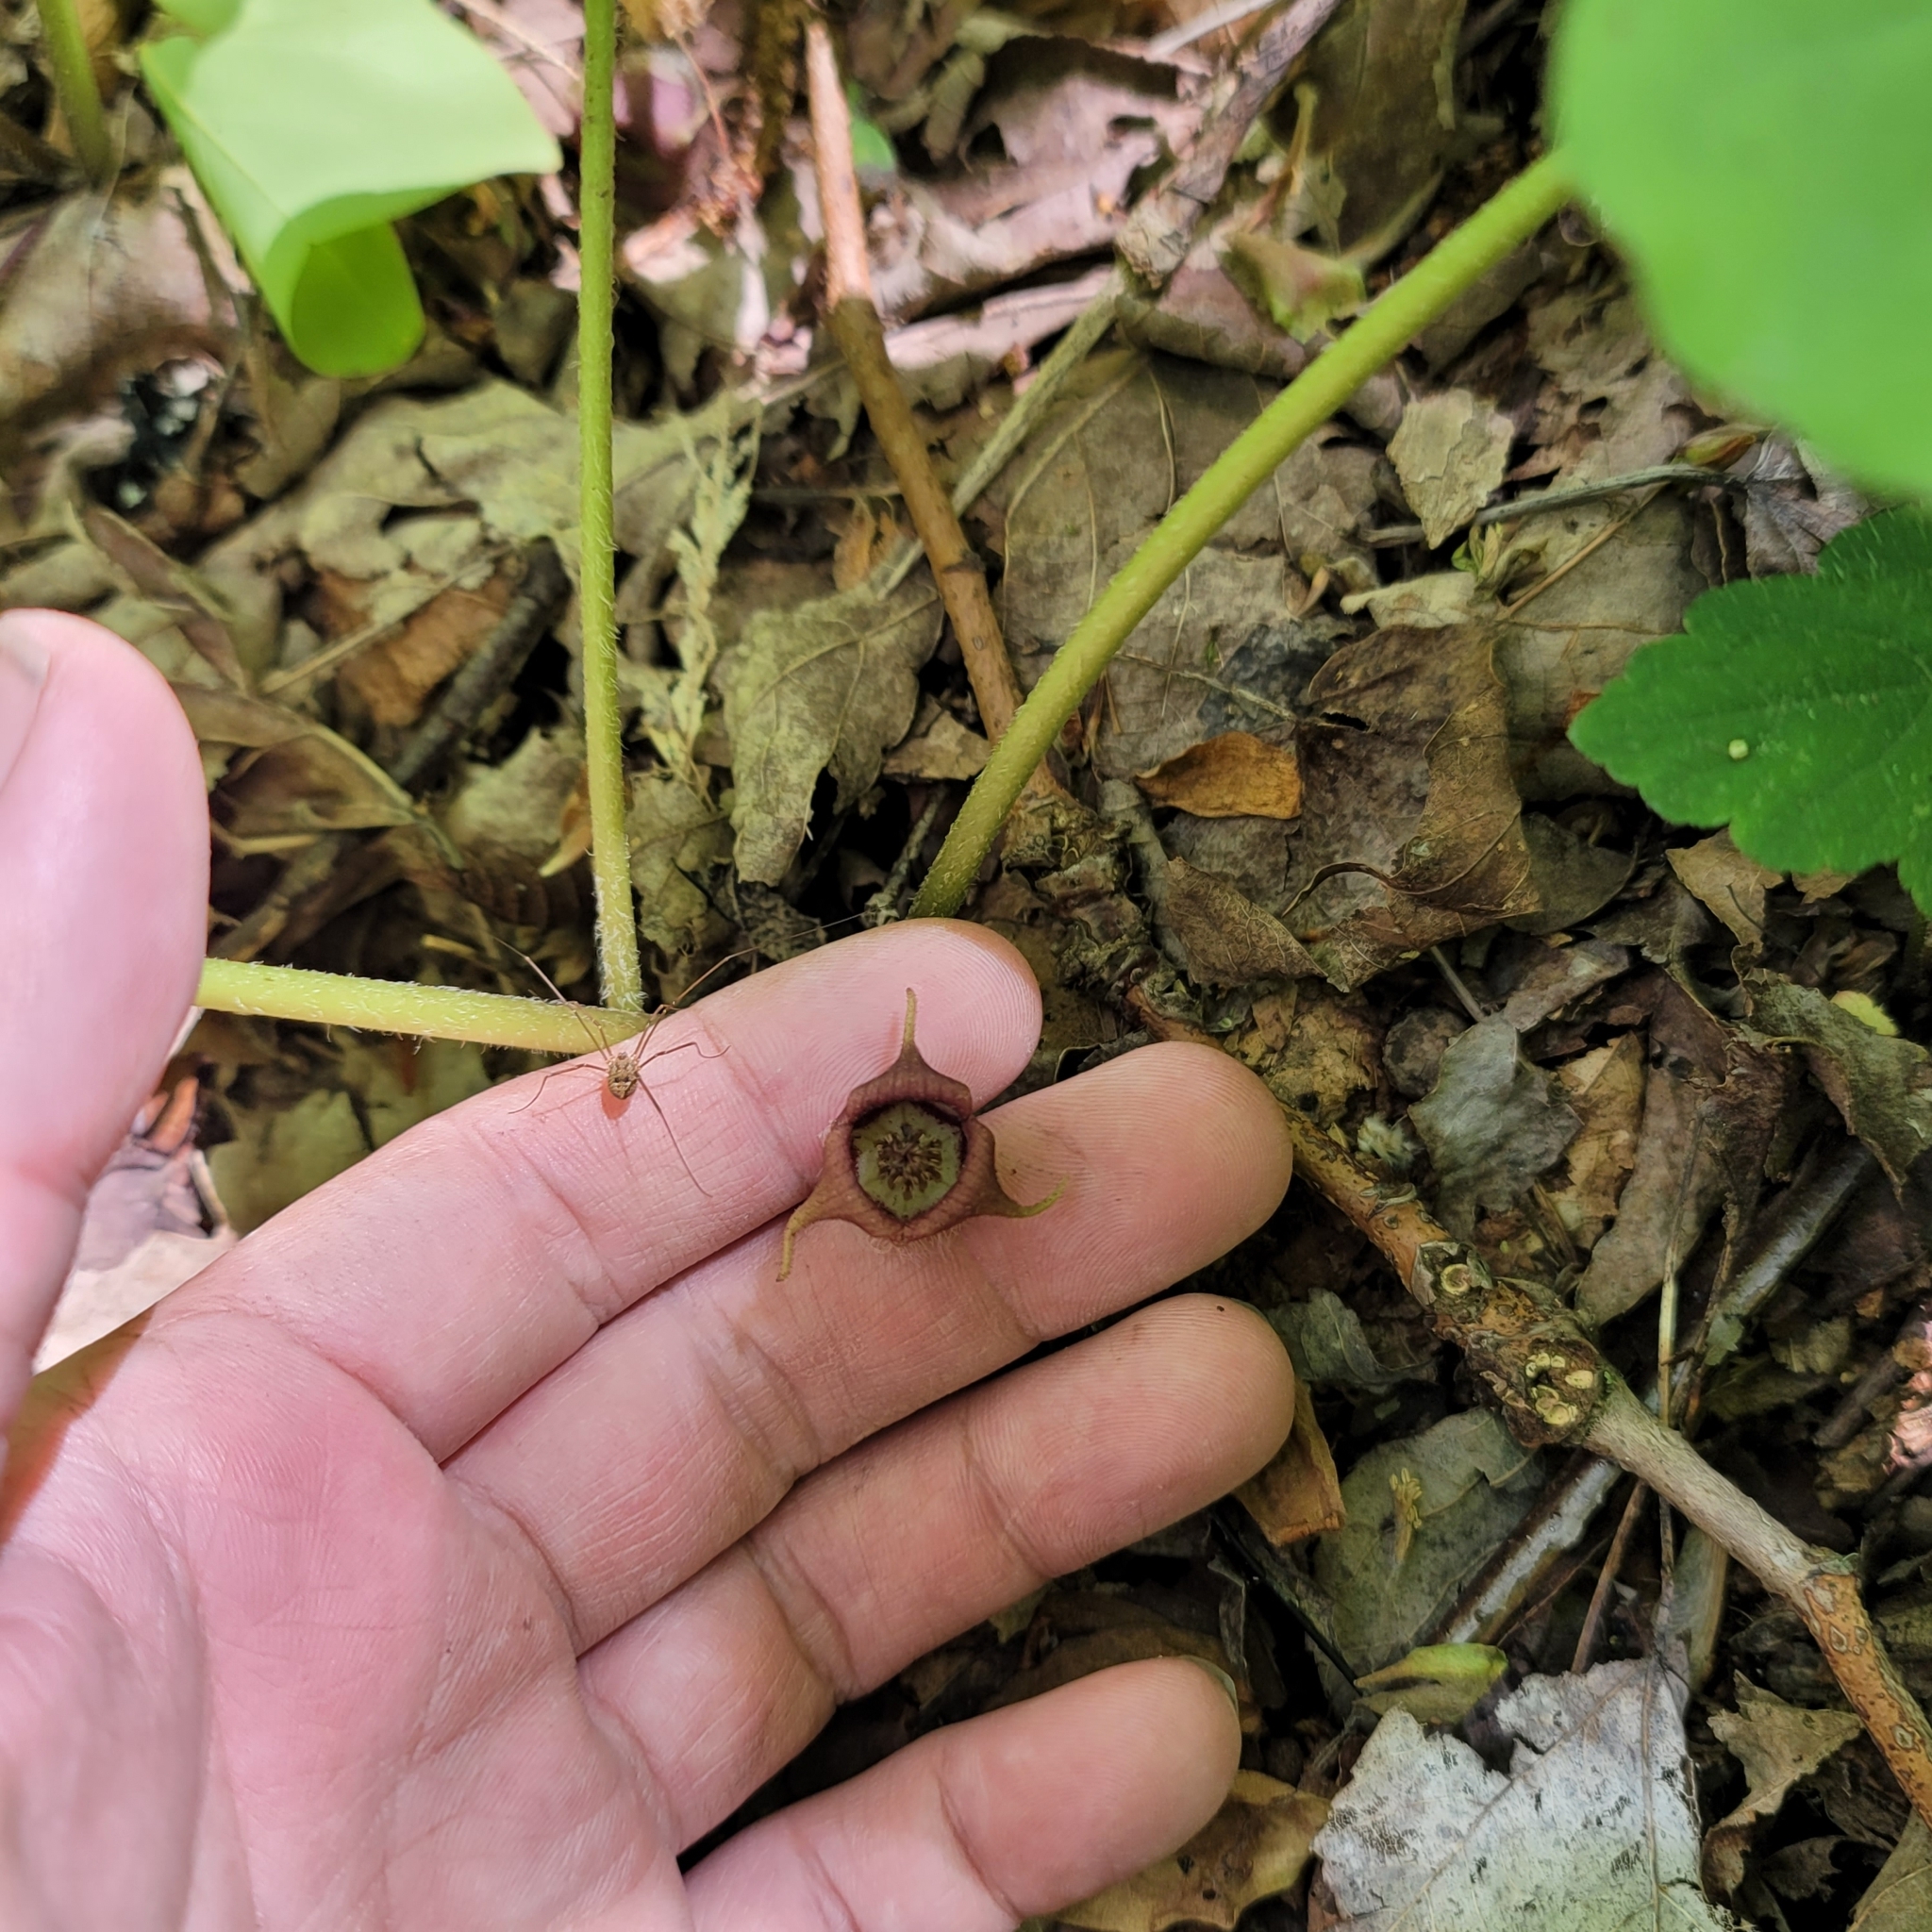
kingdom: Plantae
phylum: Tracheophyta
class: Magnoliopsida
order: Piperales
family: Aristolochiaceae
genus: Asarum
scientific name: Asarum canadense
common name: Wild ginger
